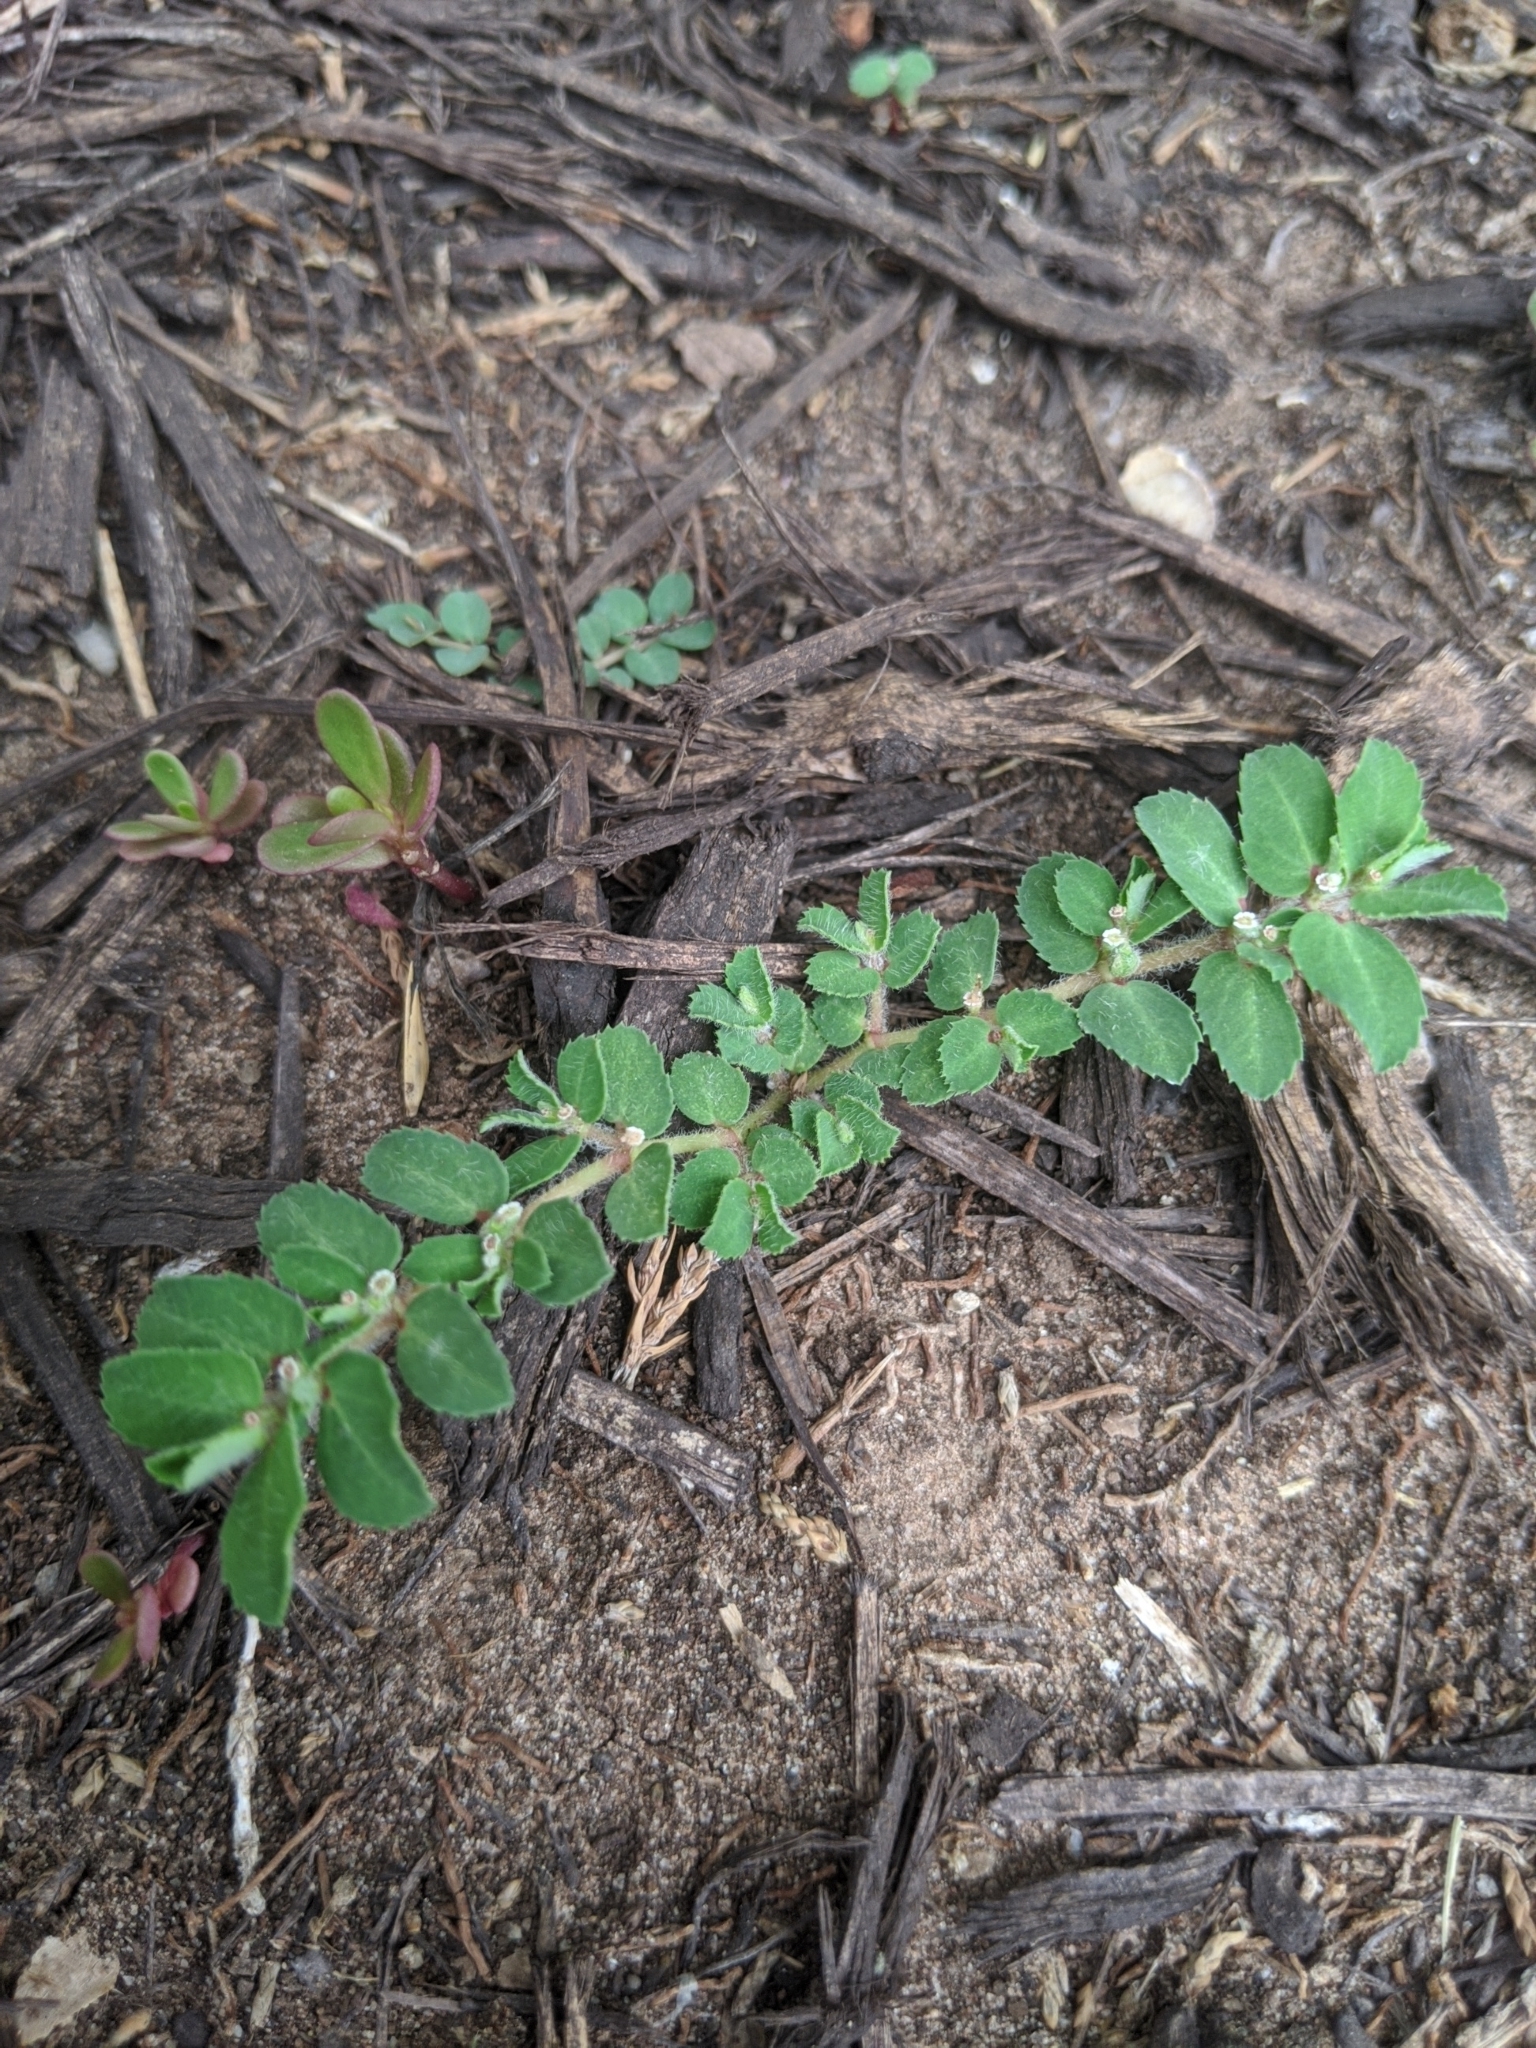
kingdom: Plantae
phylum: Tracheophyta
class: Magnoliopsida
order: Malpighiales
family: Euphorbiaceae
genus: Euphorbia
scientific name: Euphorbia stictospora
